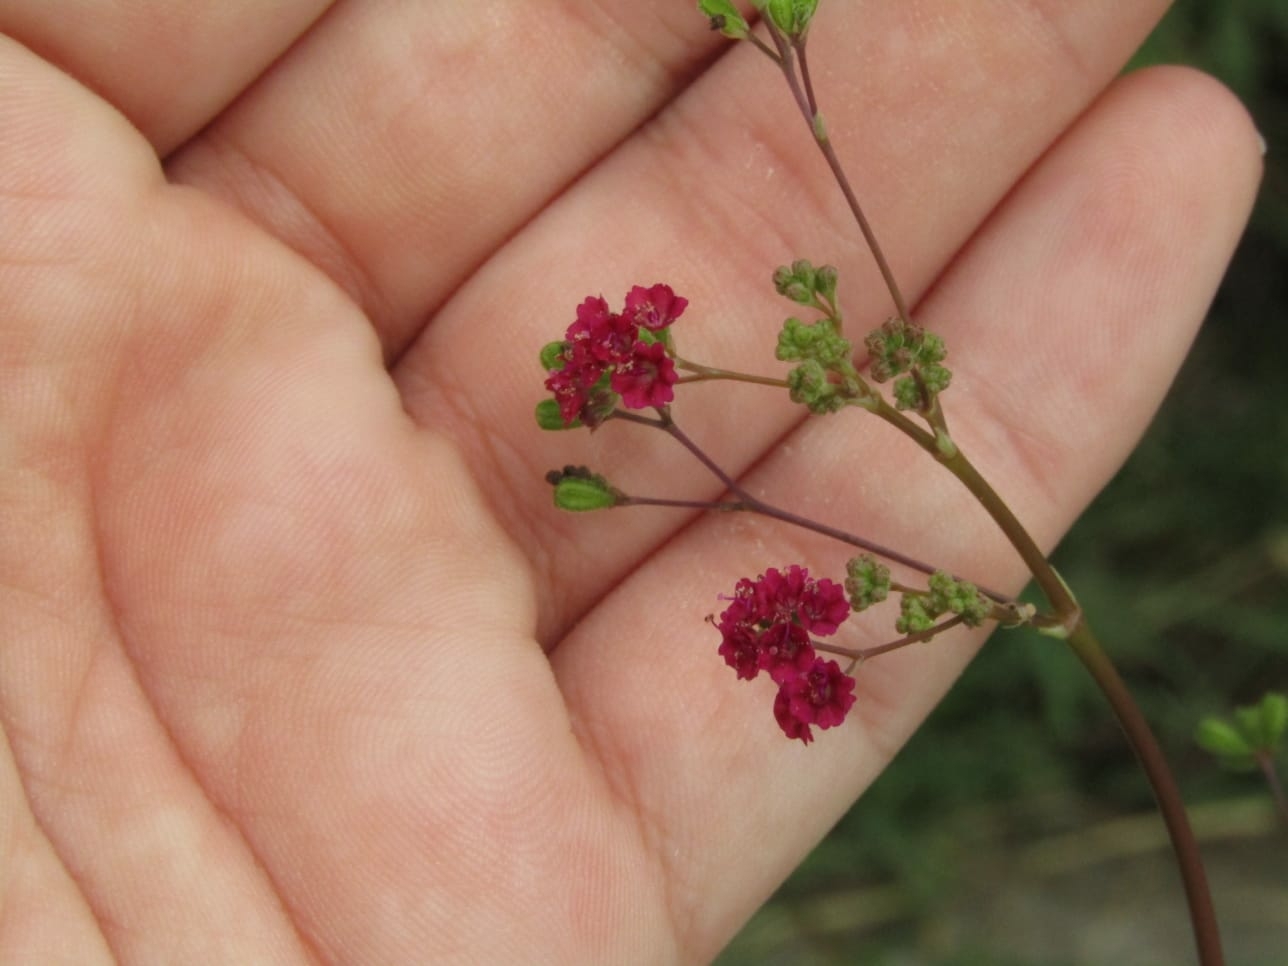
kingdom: Plantae
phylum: Tracheophyta
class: Magnoliopsida
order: Caryophyllales
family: Nyctaginaceae
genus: Boerhavia
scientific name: Boerhavia diffusa
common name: Red spiderling
